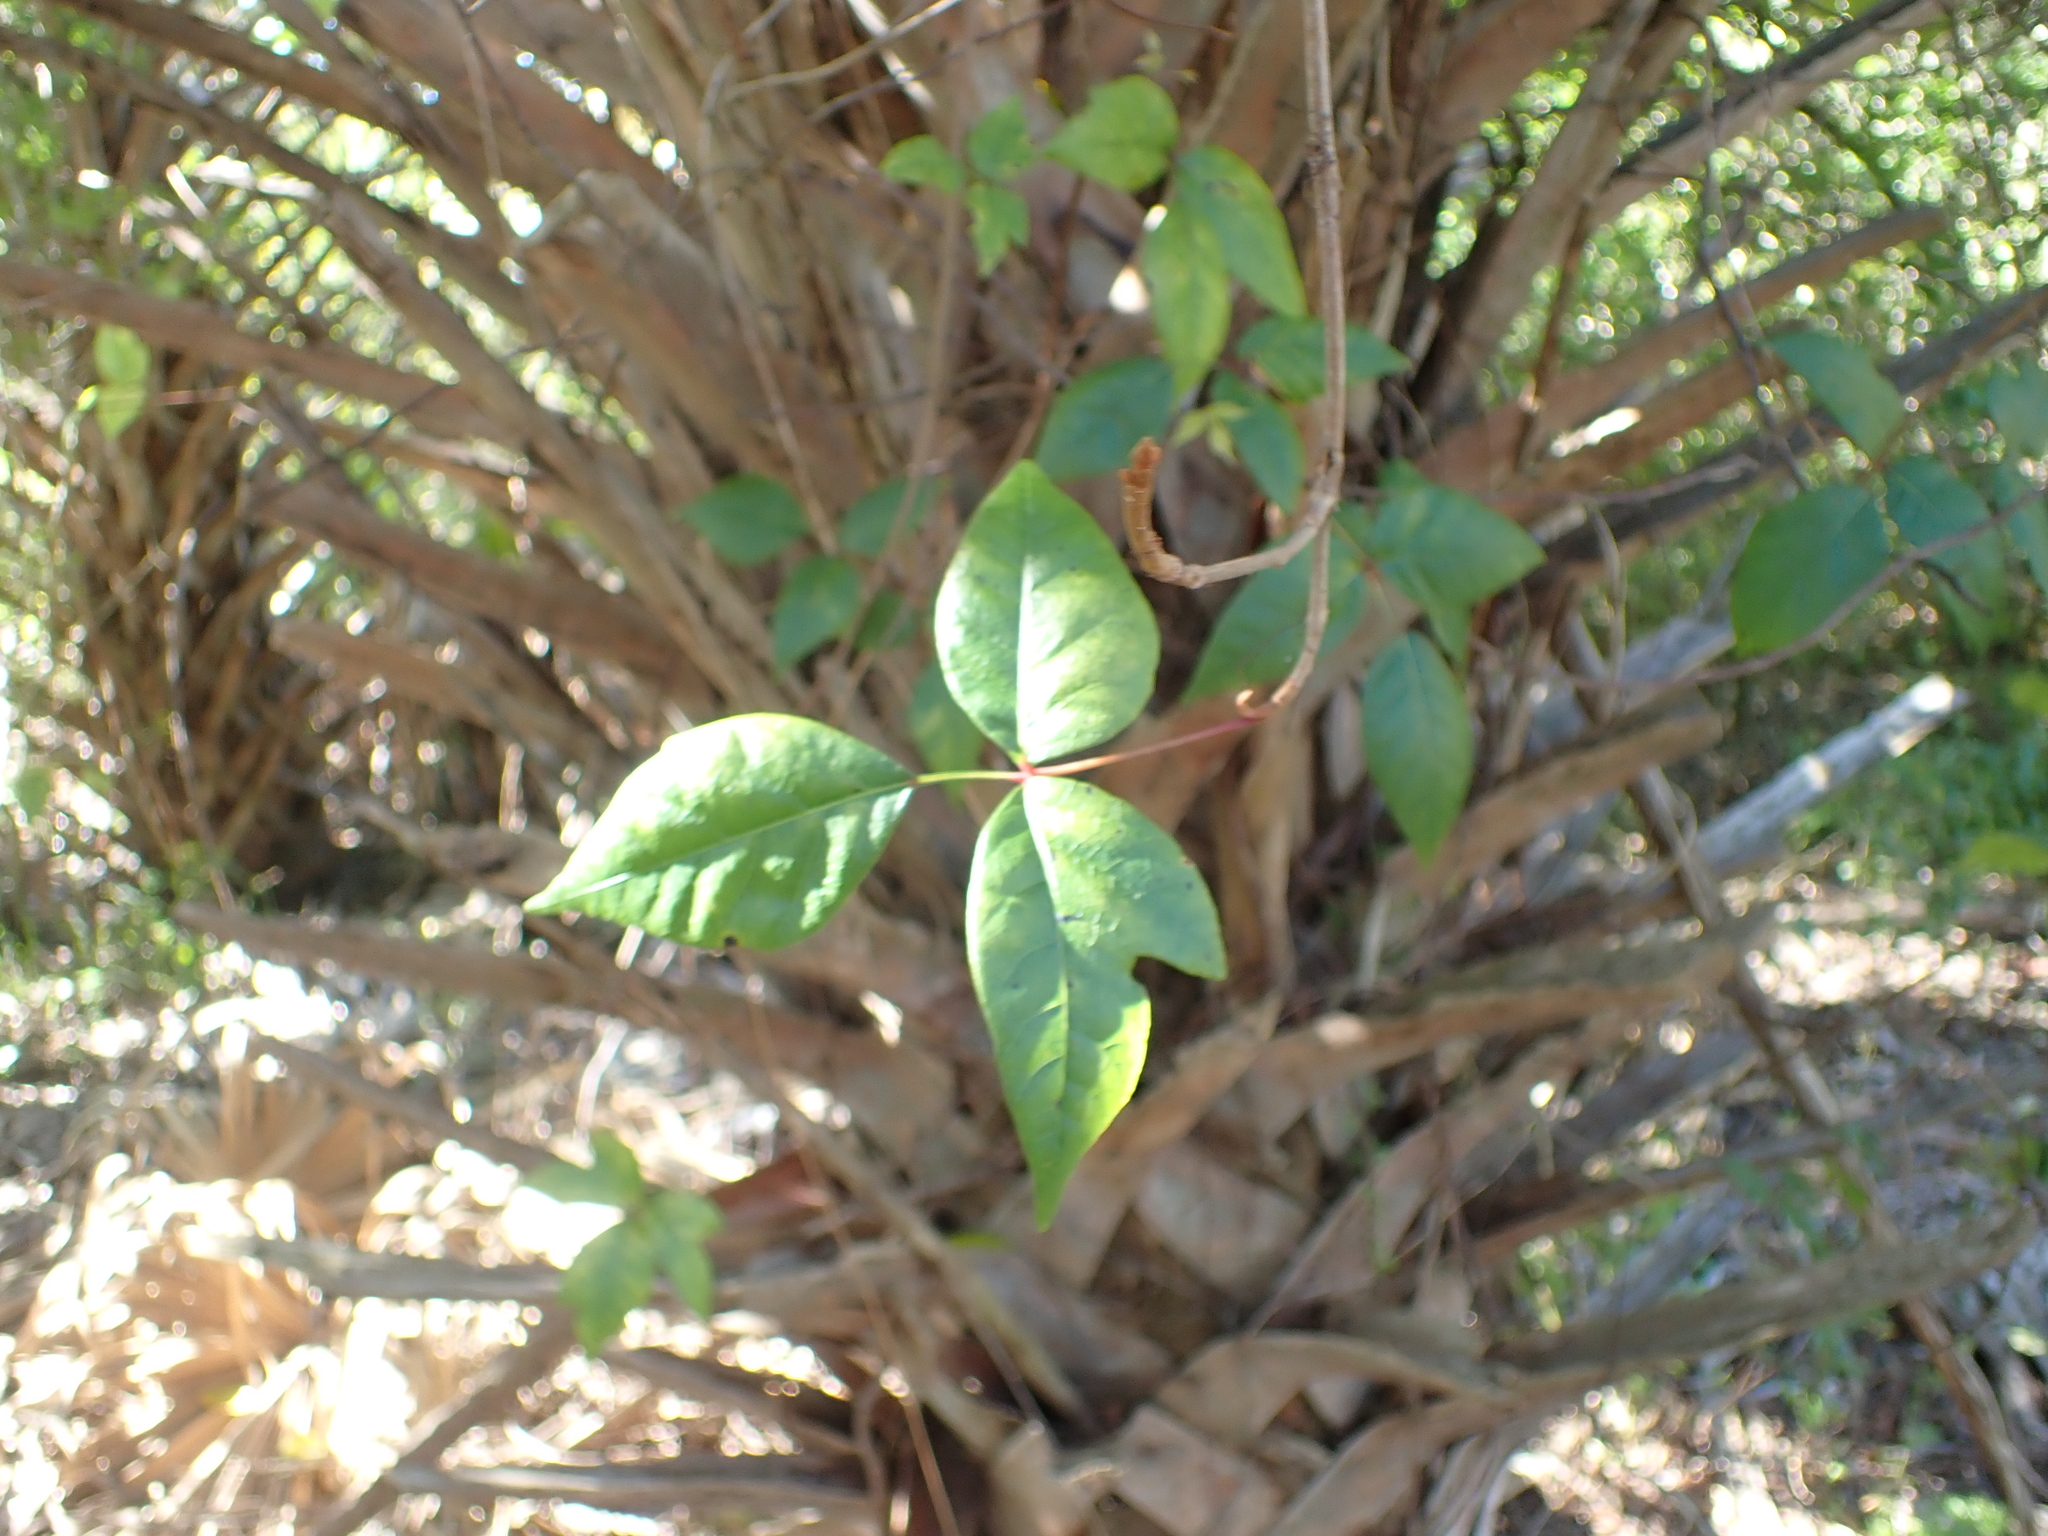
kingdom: Plantae
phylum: Tracheophyta
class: Magnoliopsida
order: Sapindales
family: Anacardiaceae
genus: Toxicodendron
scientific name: Toxicodendron radicans
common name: Poison ivy
